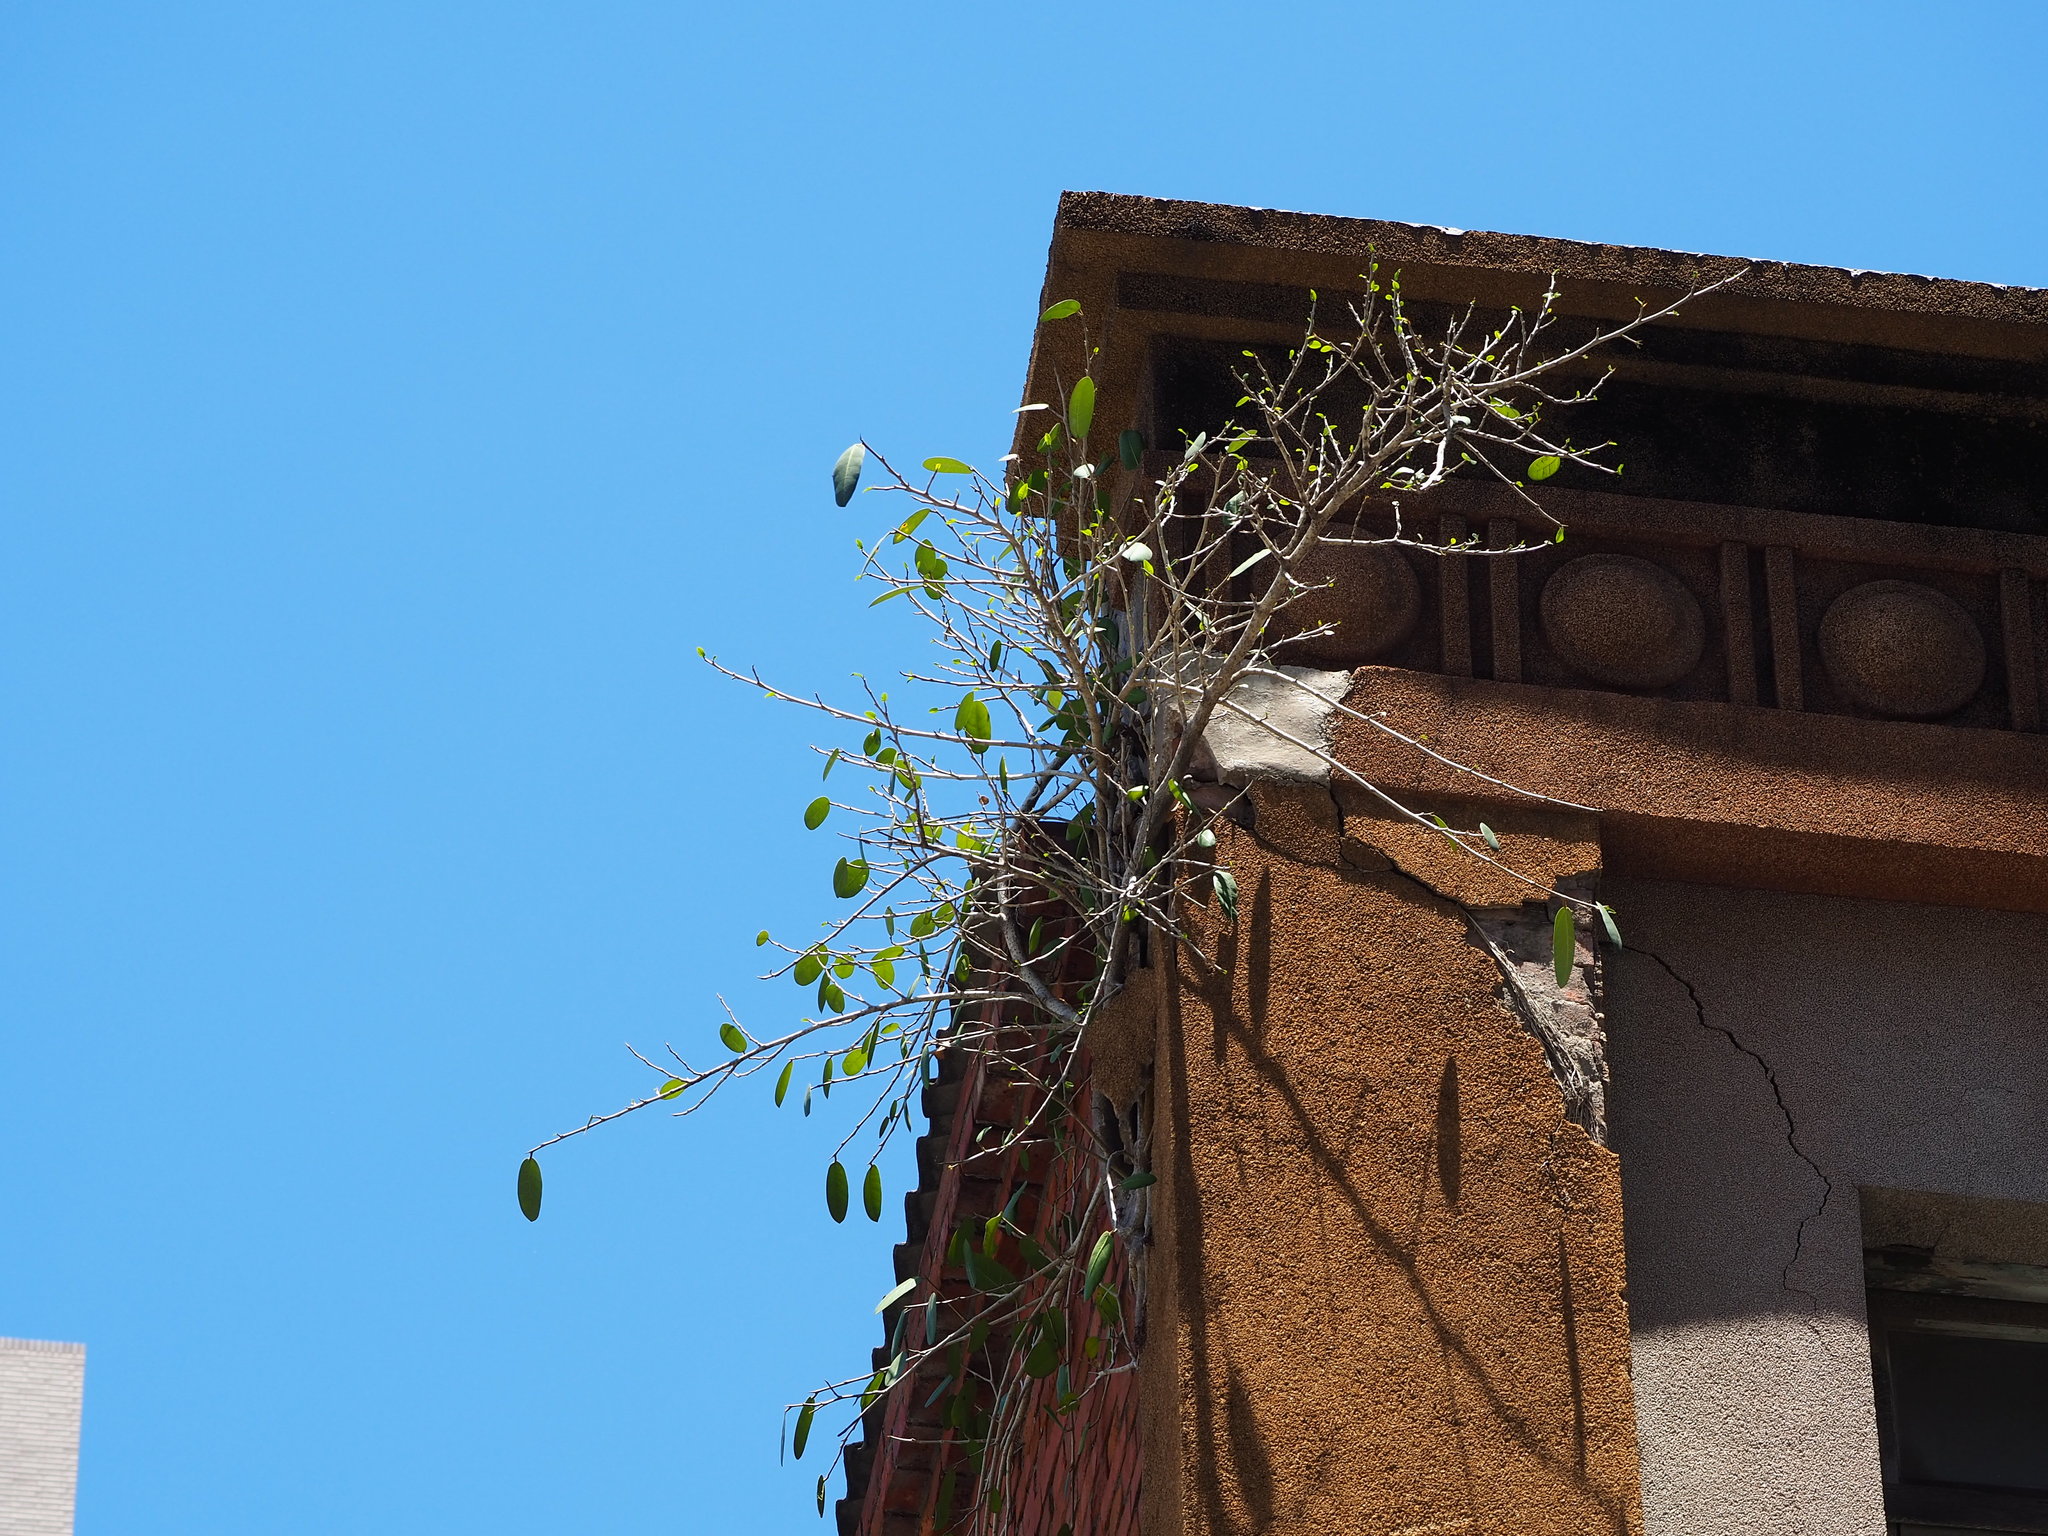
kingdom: Plantae
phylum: Tracheophyta
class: Magnoliopsida
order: Rosales
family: Moraceae
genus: Ficus
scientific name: Ficus tinctoria
